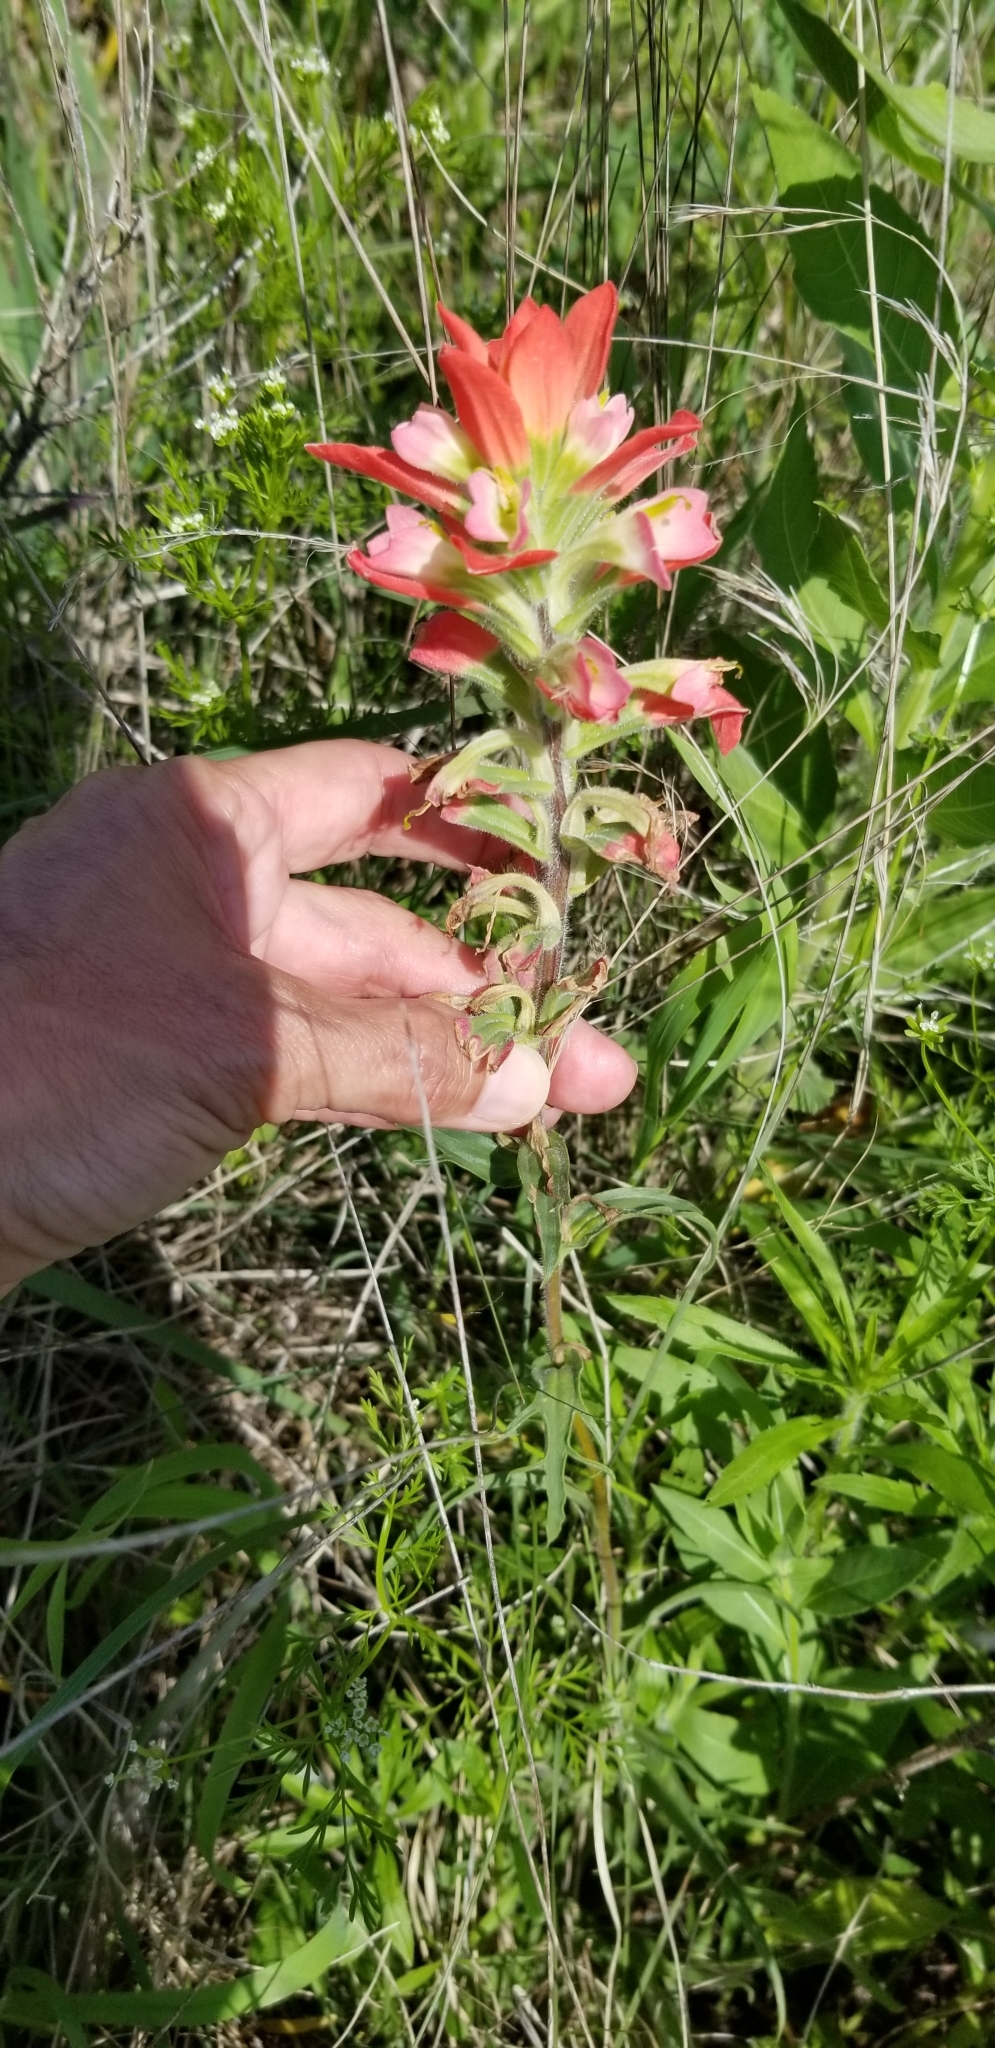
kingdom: Plantae
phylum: Tracheophyta
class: Magnoliopsida
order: Lamiales
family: Orobanchaceae
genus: Castilleja
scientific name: Castilleja indivisa
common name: Texas paintbrush
